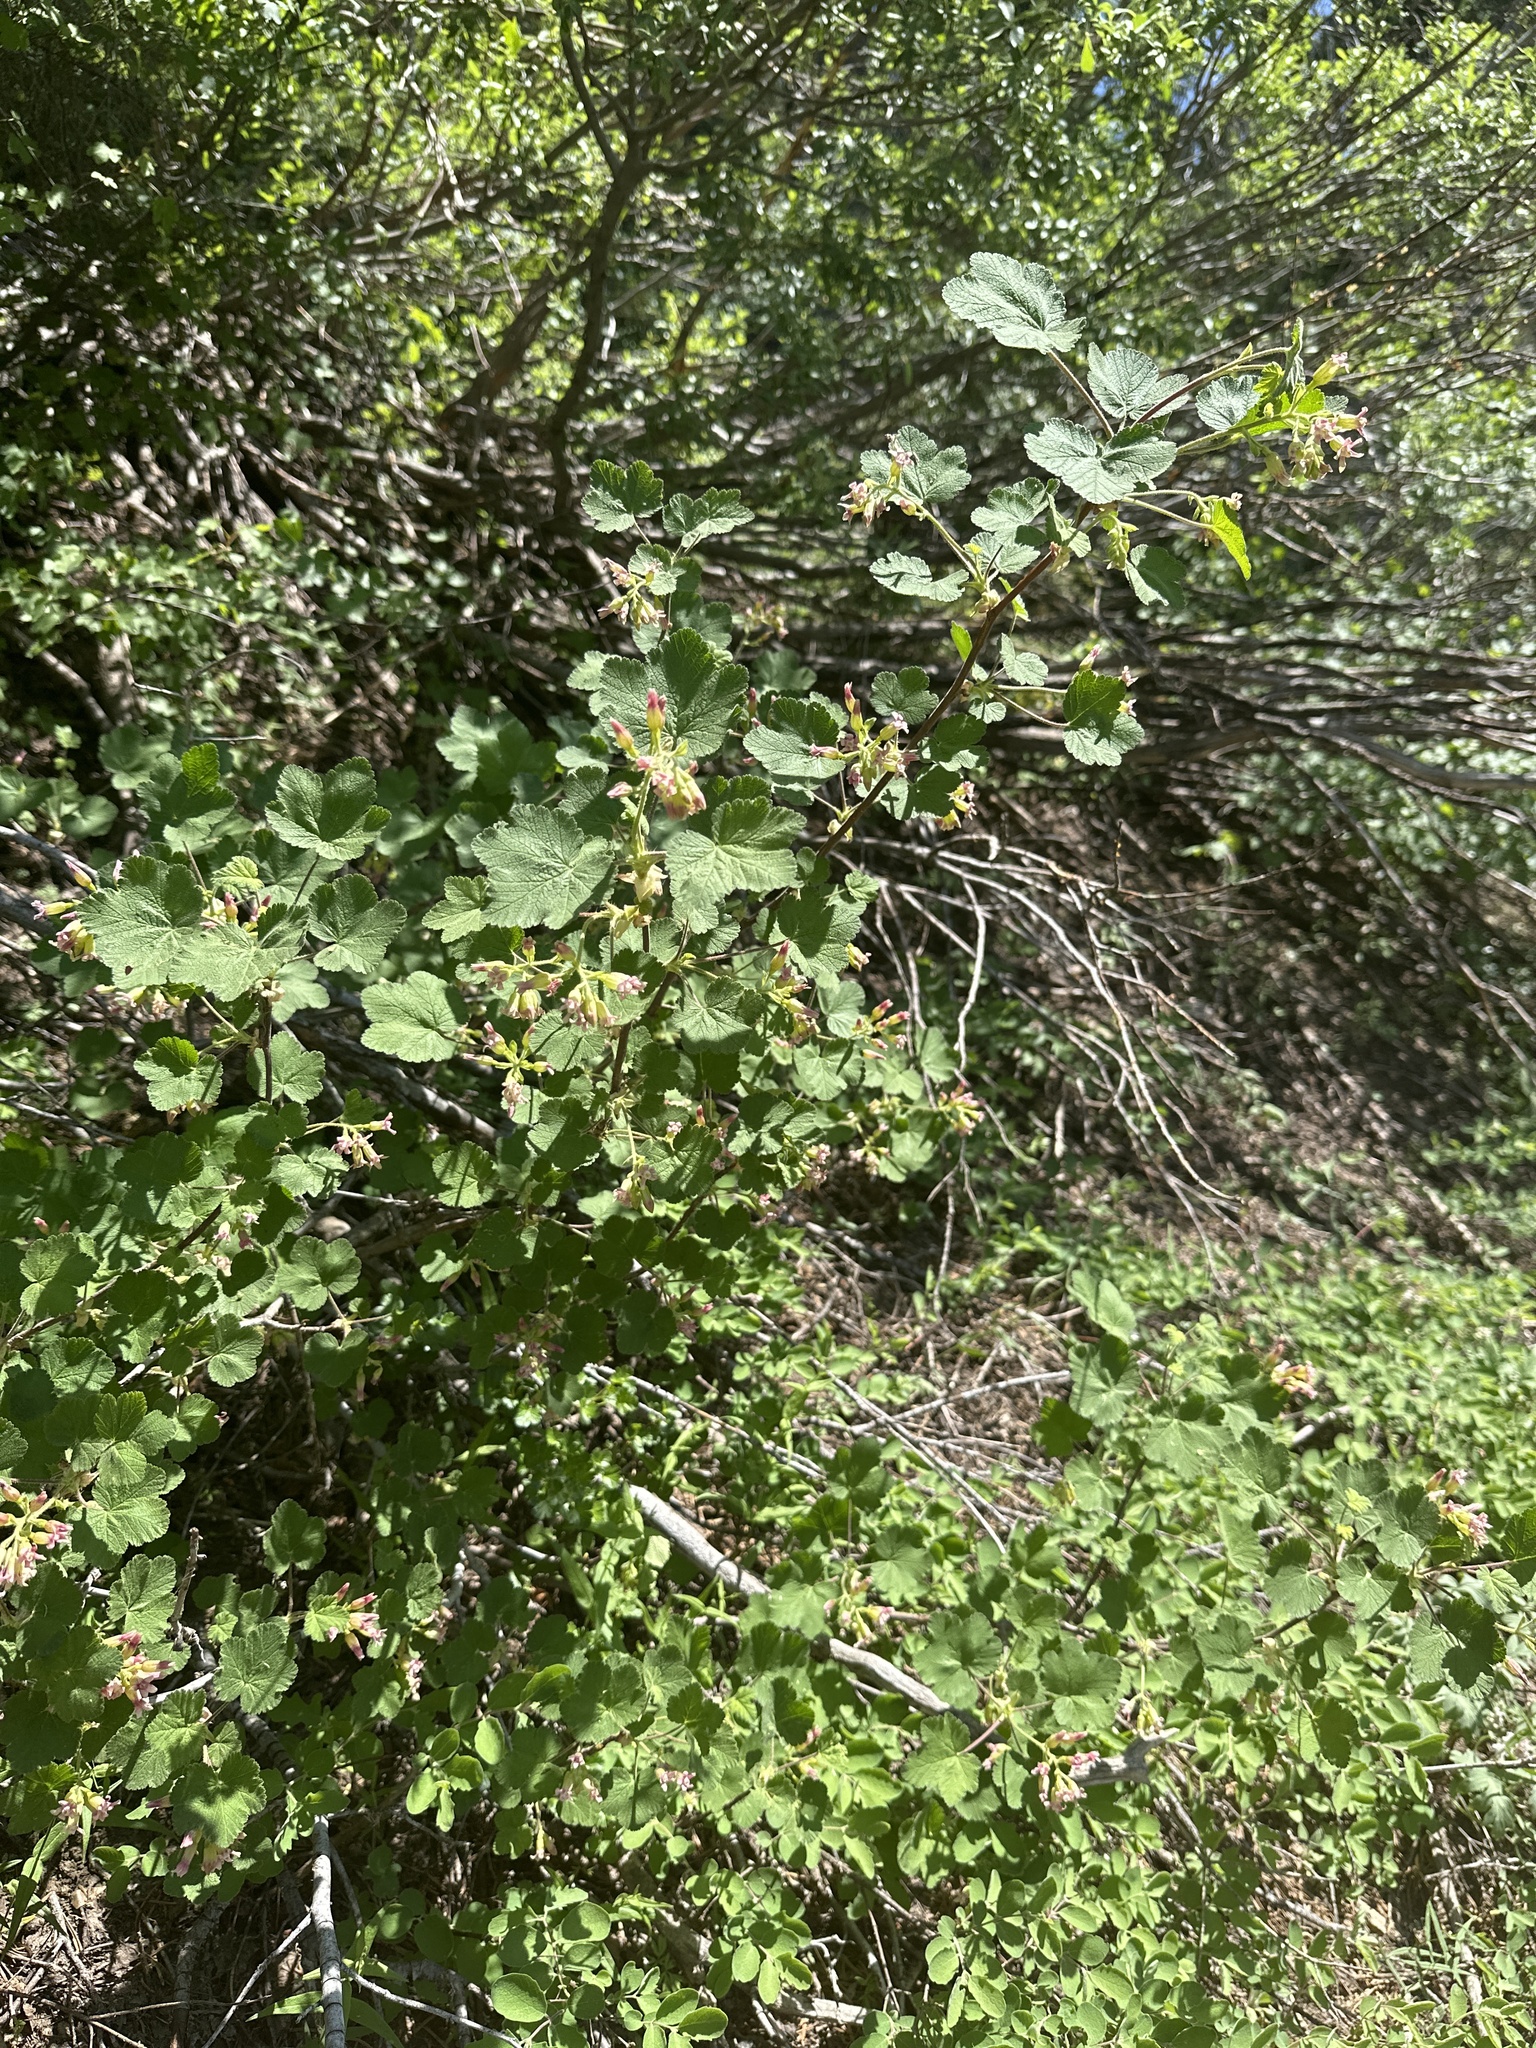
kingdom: Plantae
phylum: Tracheophyta
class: Magnoliopsida
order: Saxifragales
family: Grossulariaceae
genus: Ribes
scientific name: Ribes viscosissimum
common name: Sticky currant
